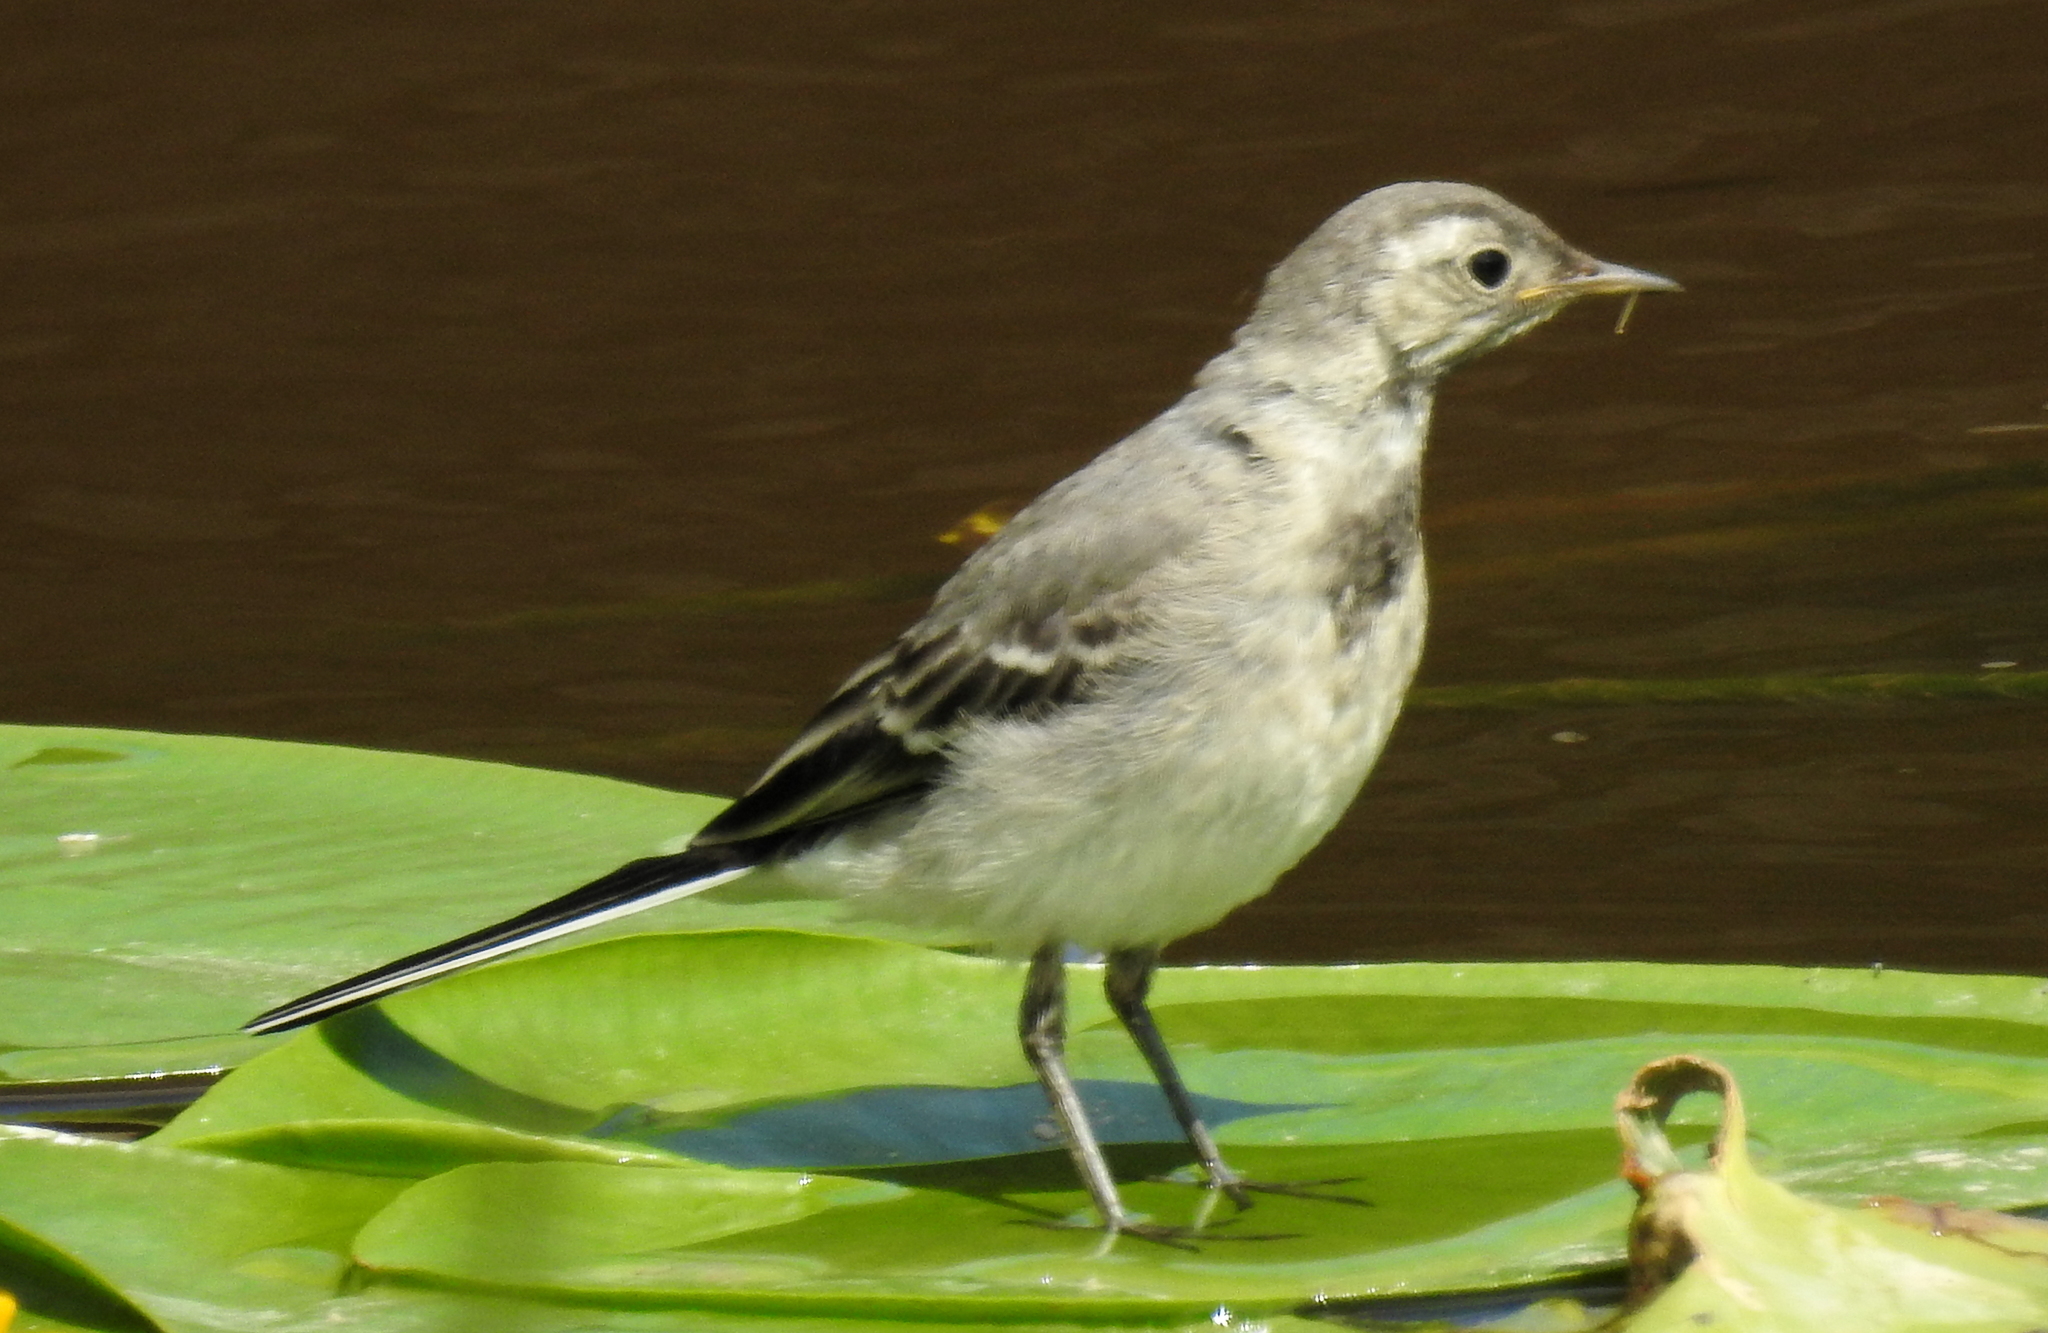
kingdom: Animalia
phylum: Chordata
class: Aves
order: Passeriformes
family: Motacillidae
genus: Motacilla
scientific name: Motacilla alba
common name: White wagtail
